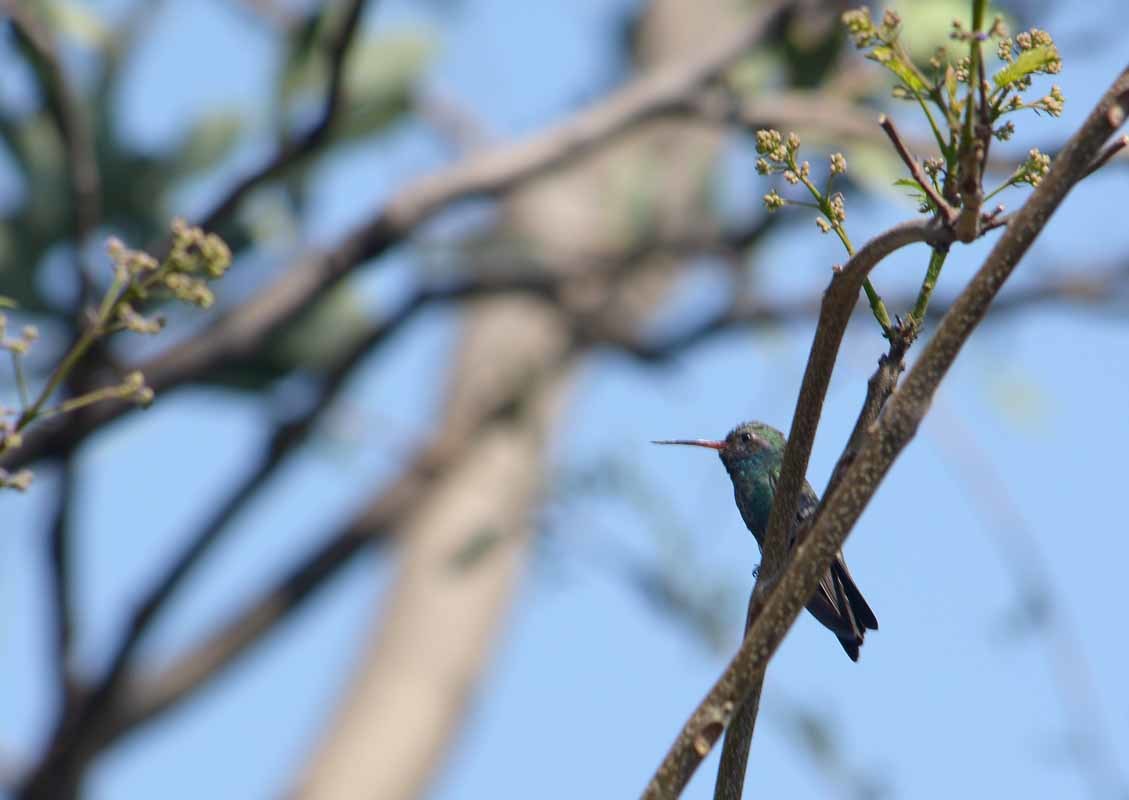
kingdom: Animalia
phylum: Chordata
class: Aves
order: Apodiformes
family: Trochilidae
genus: Cynanthus
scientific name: Cynanthus latirostris
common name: Broad-billed hummingbird
